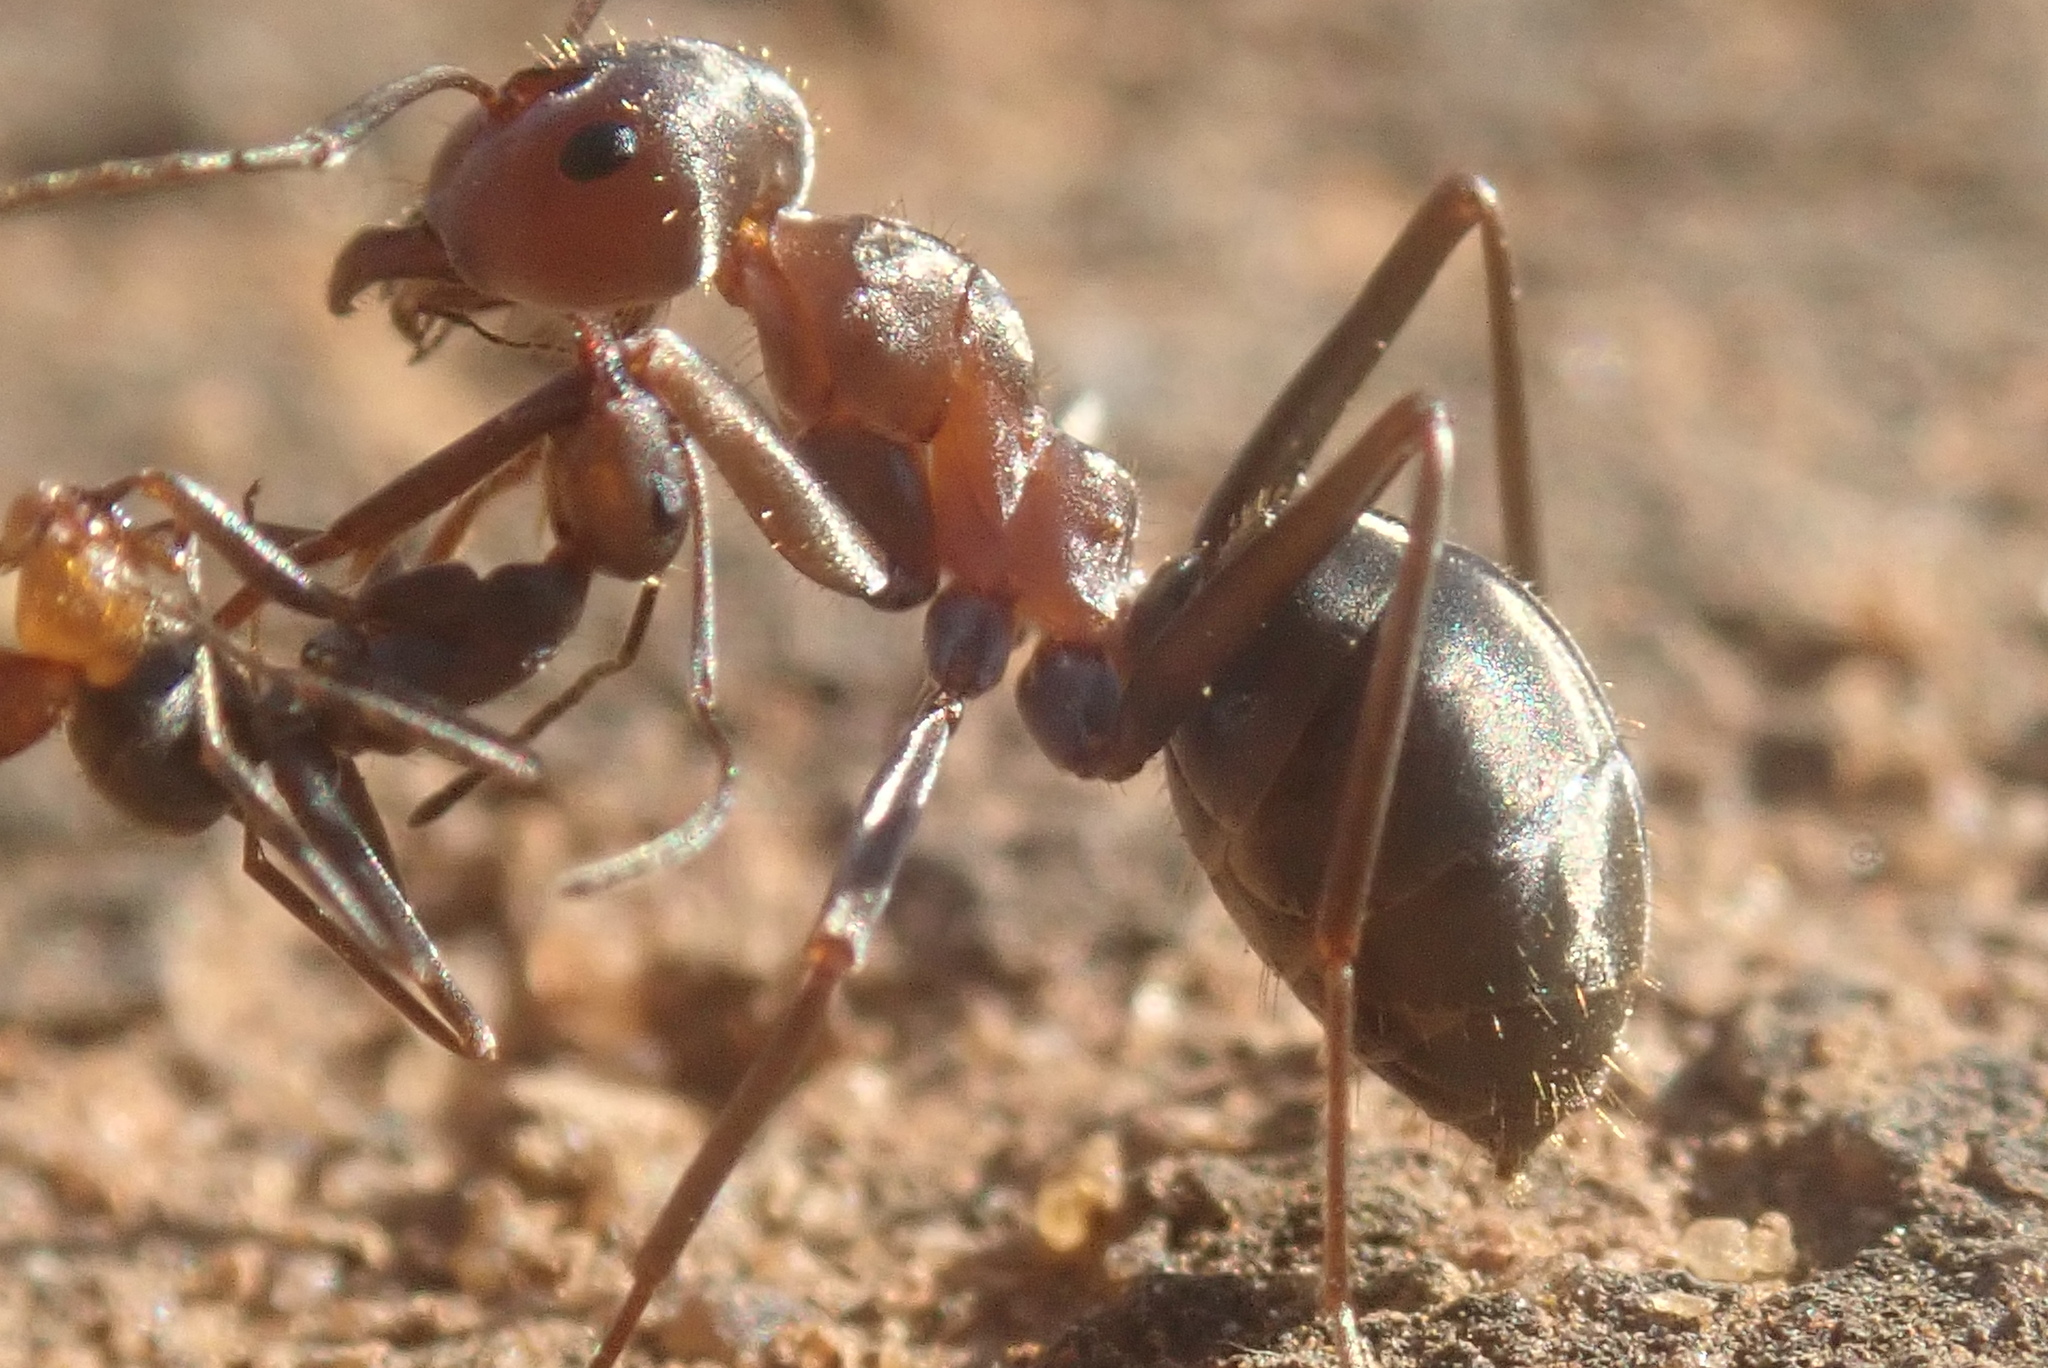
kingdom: Animalia
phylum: Arthropoda
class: Insecta
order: Hymenoptera
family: Formicidae
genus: Anoplolepis
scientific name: Anoplolepis custodiens
